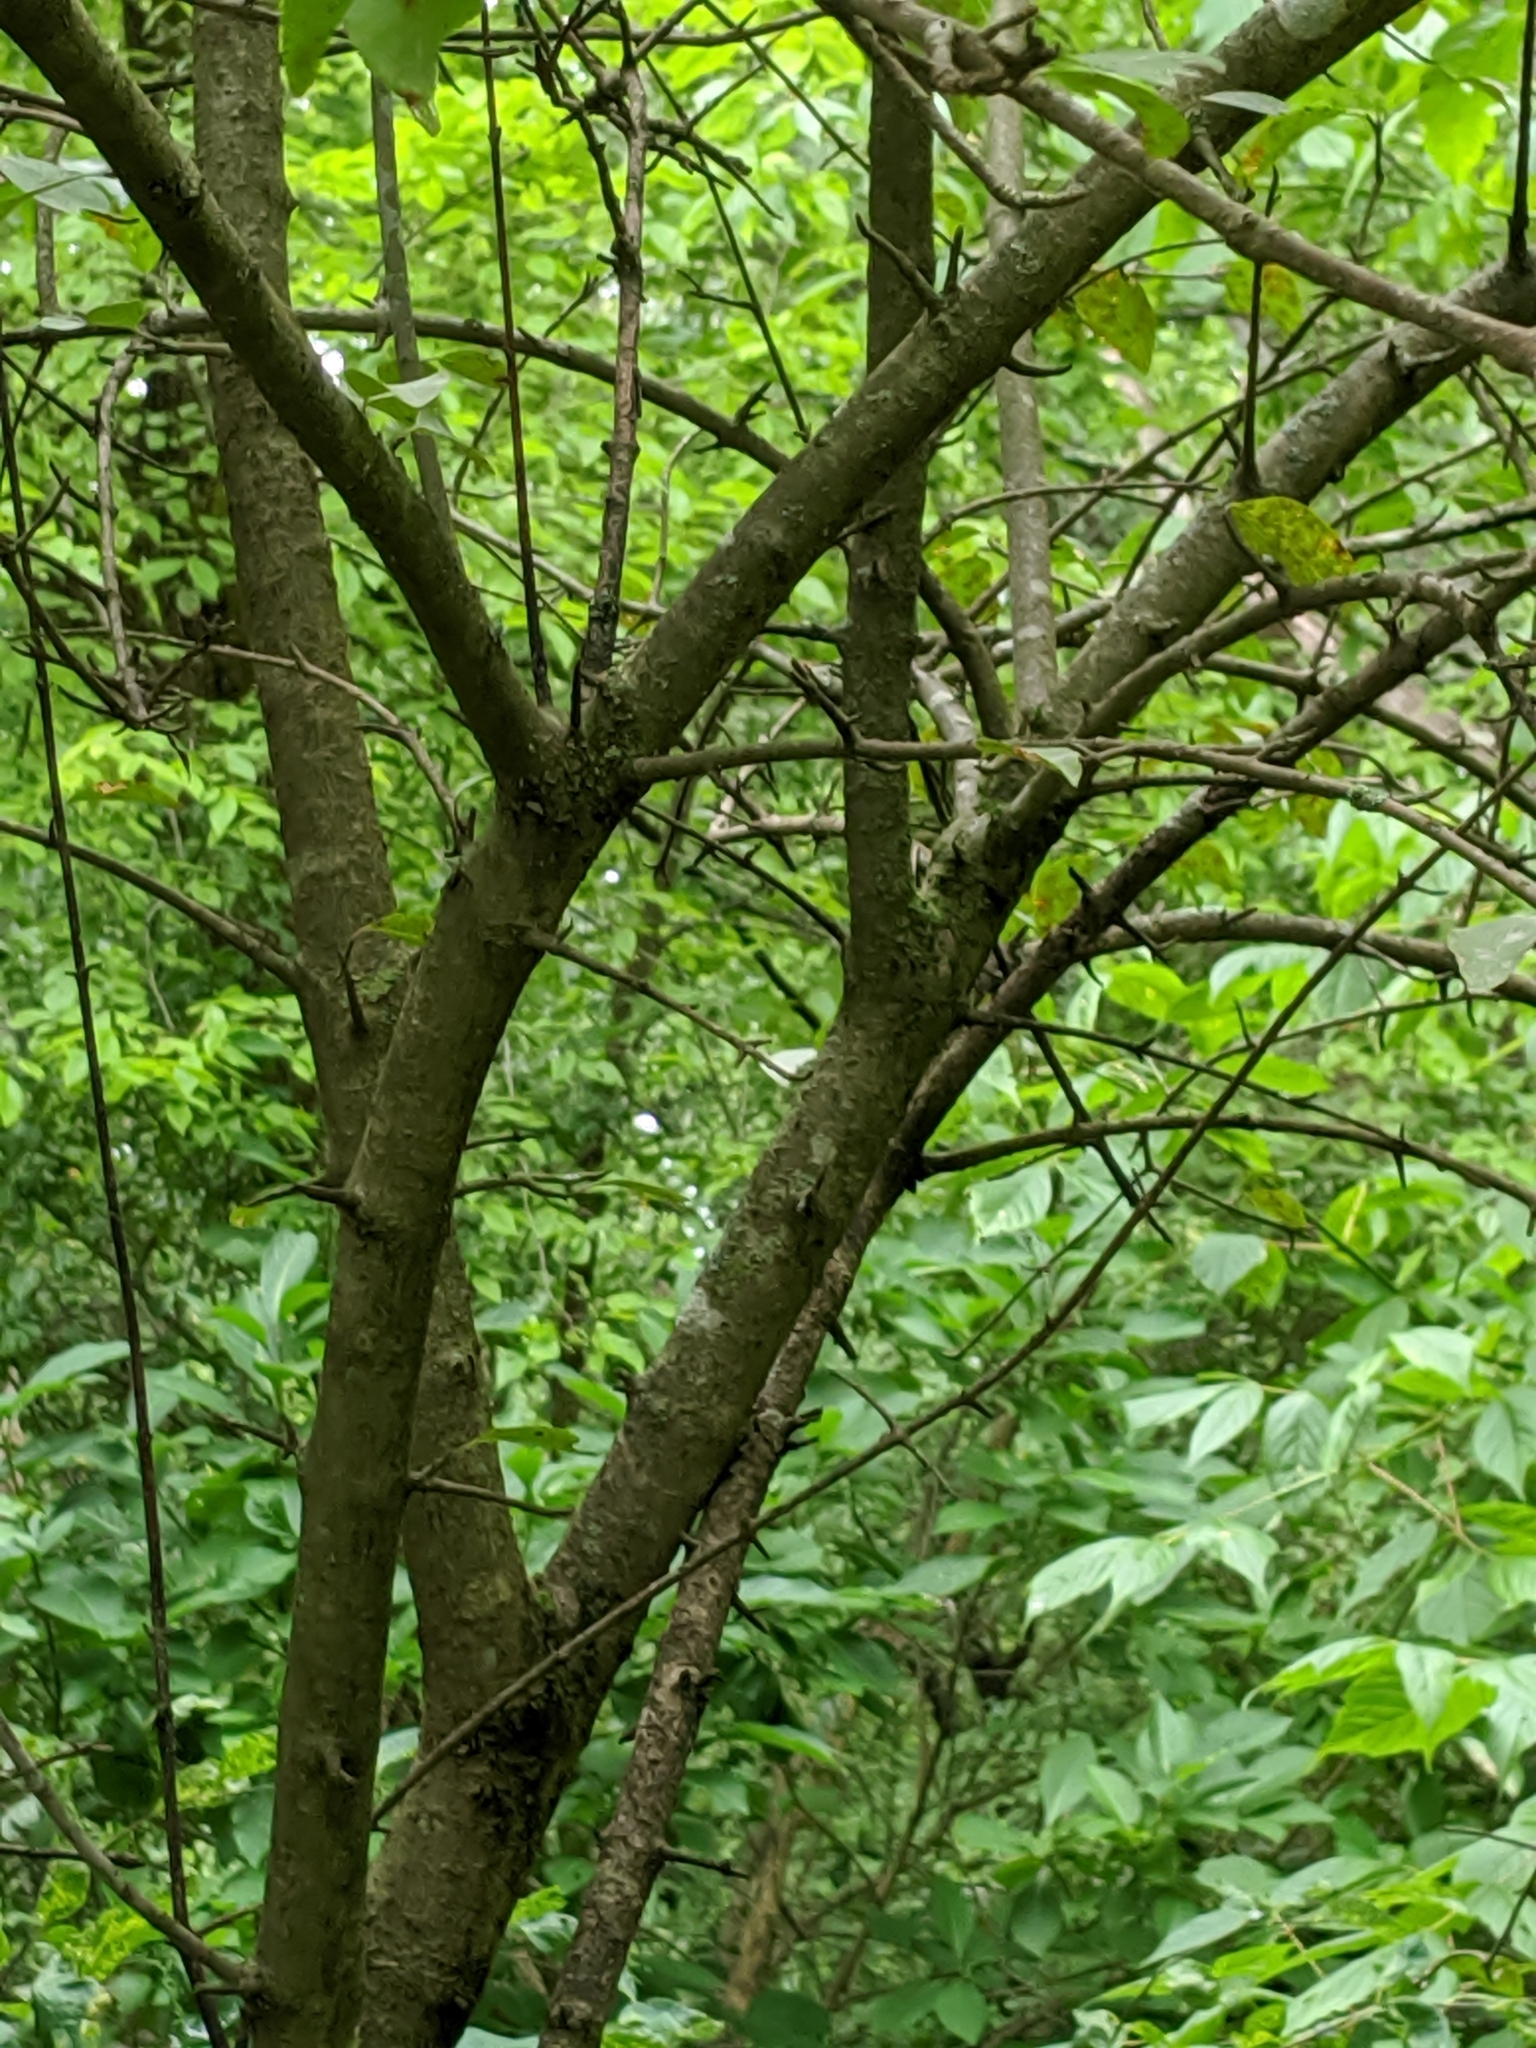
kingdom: Plantae
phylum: Tracheophyta
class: Magnoliopsida
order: Dipsacales
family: Viburnaceae
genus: Viburnum
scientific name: Viburnum prunifolium
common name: Black haw
